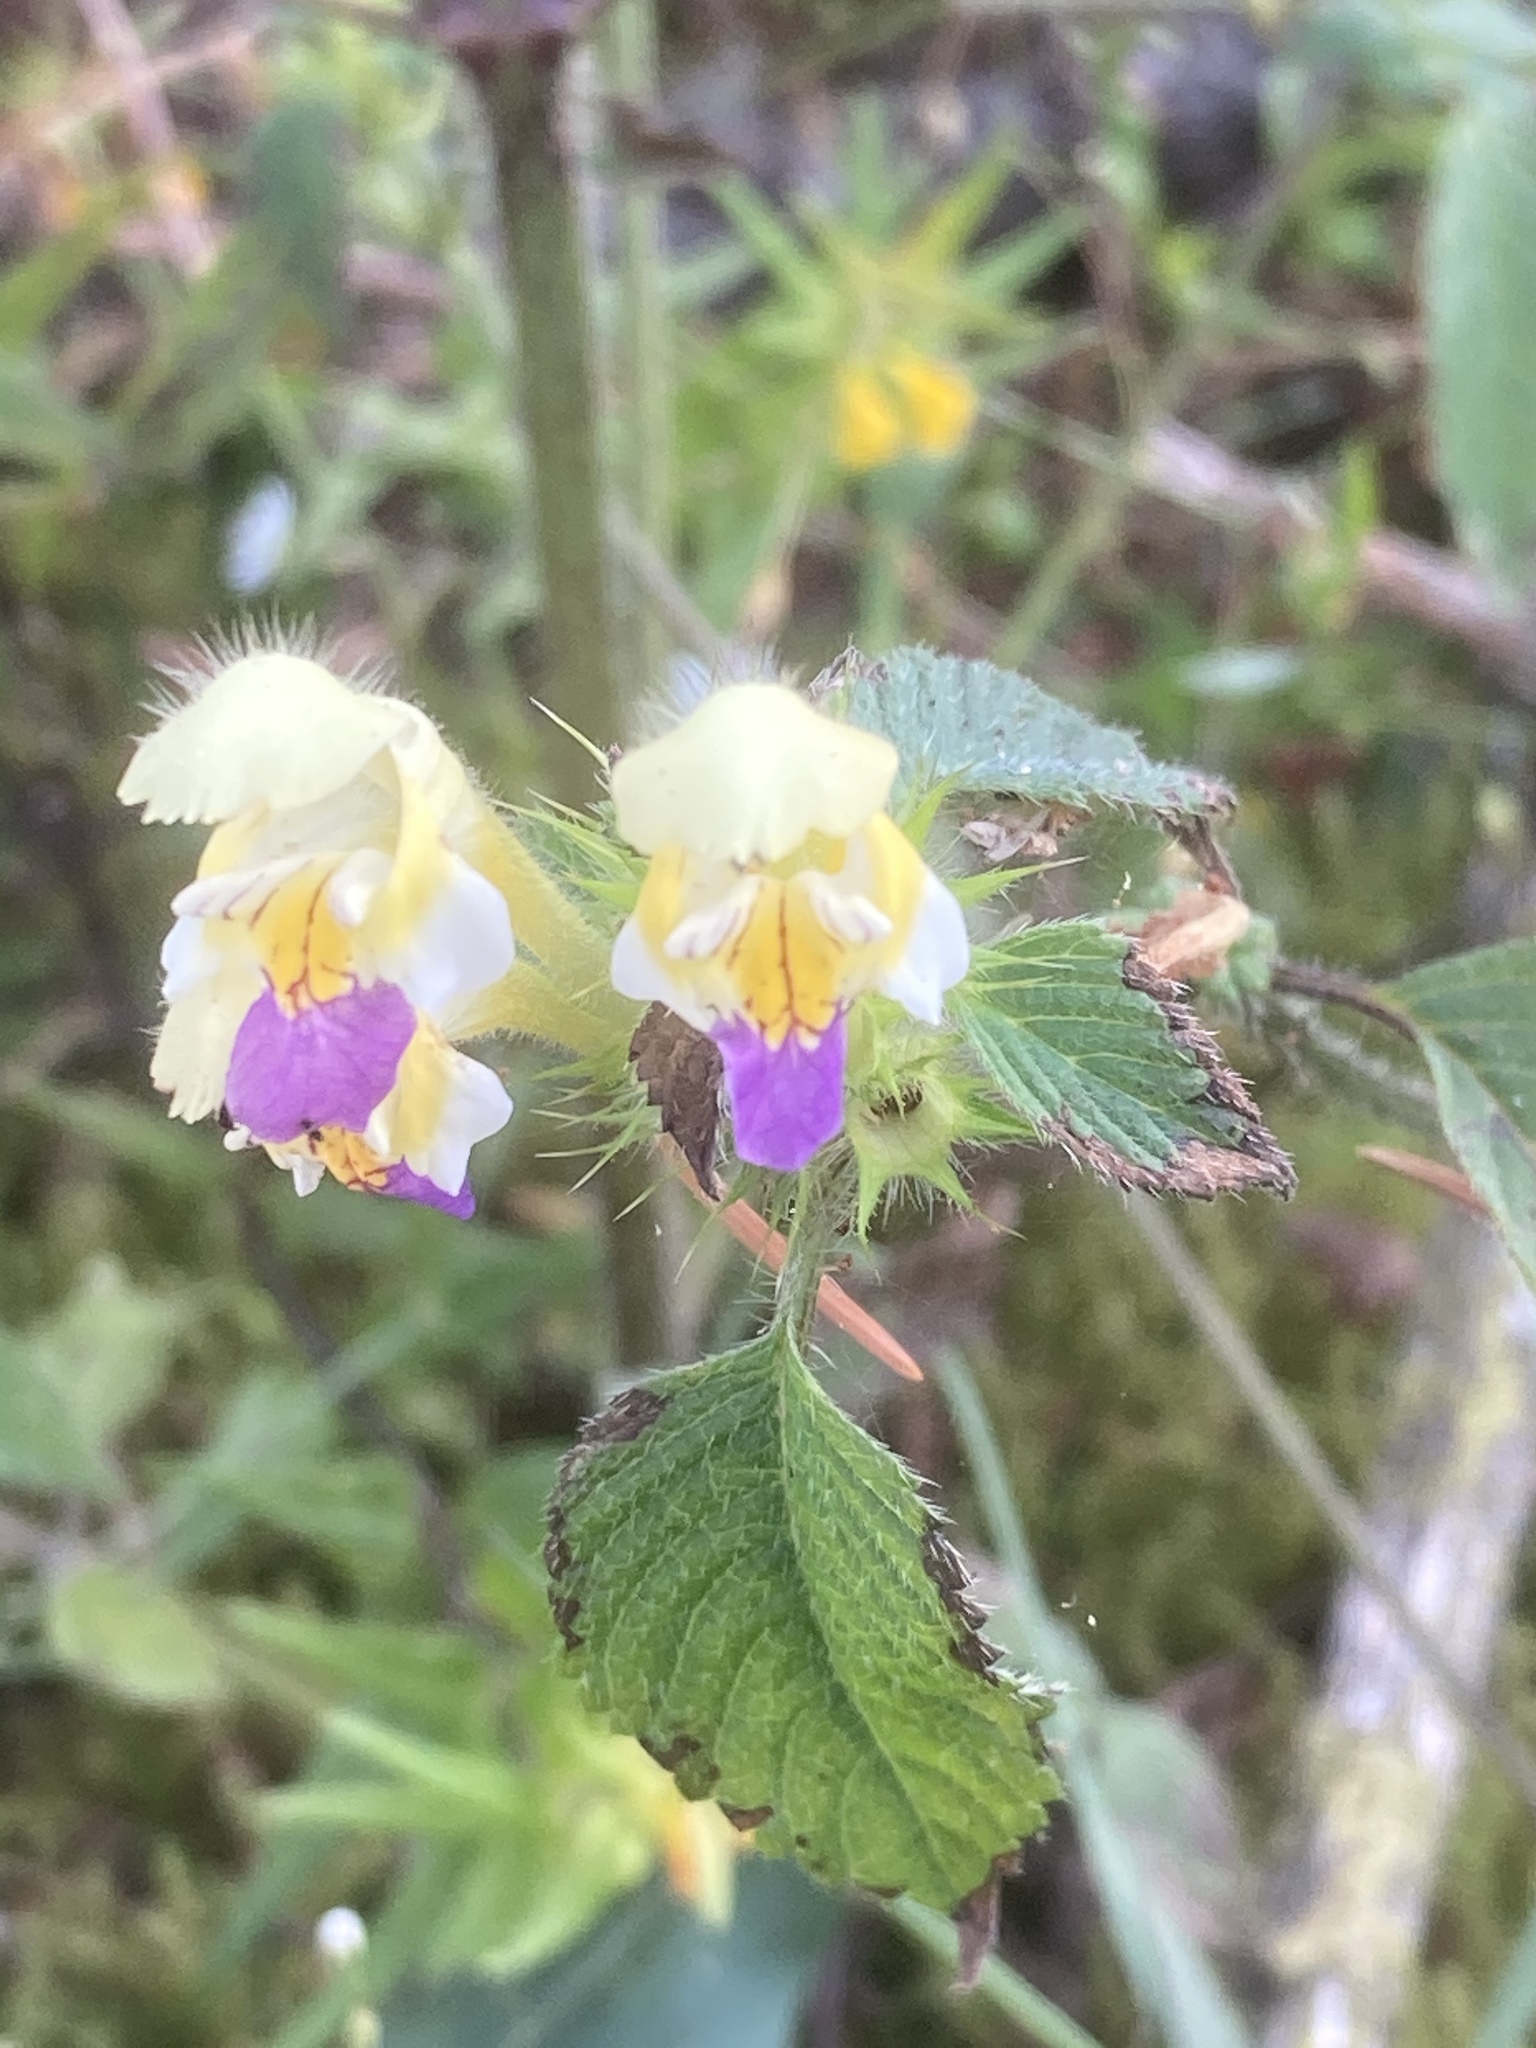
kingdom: Plantae
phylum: Tracheophyta
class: Magnoliopsida
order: Lamiales
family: Lamiaceae
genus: Galeopsis
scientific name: Galeopsis speciosa
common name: Large-flowered hemp-nettle
